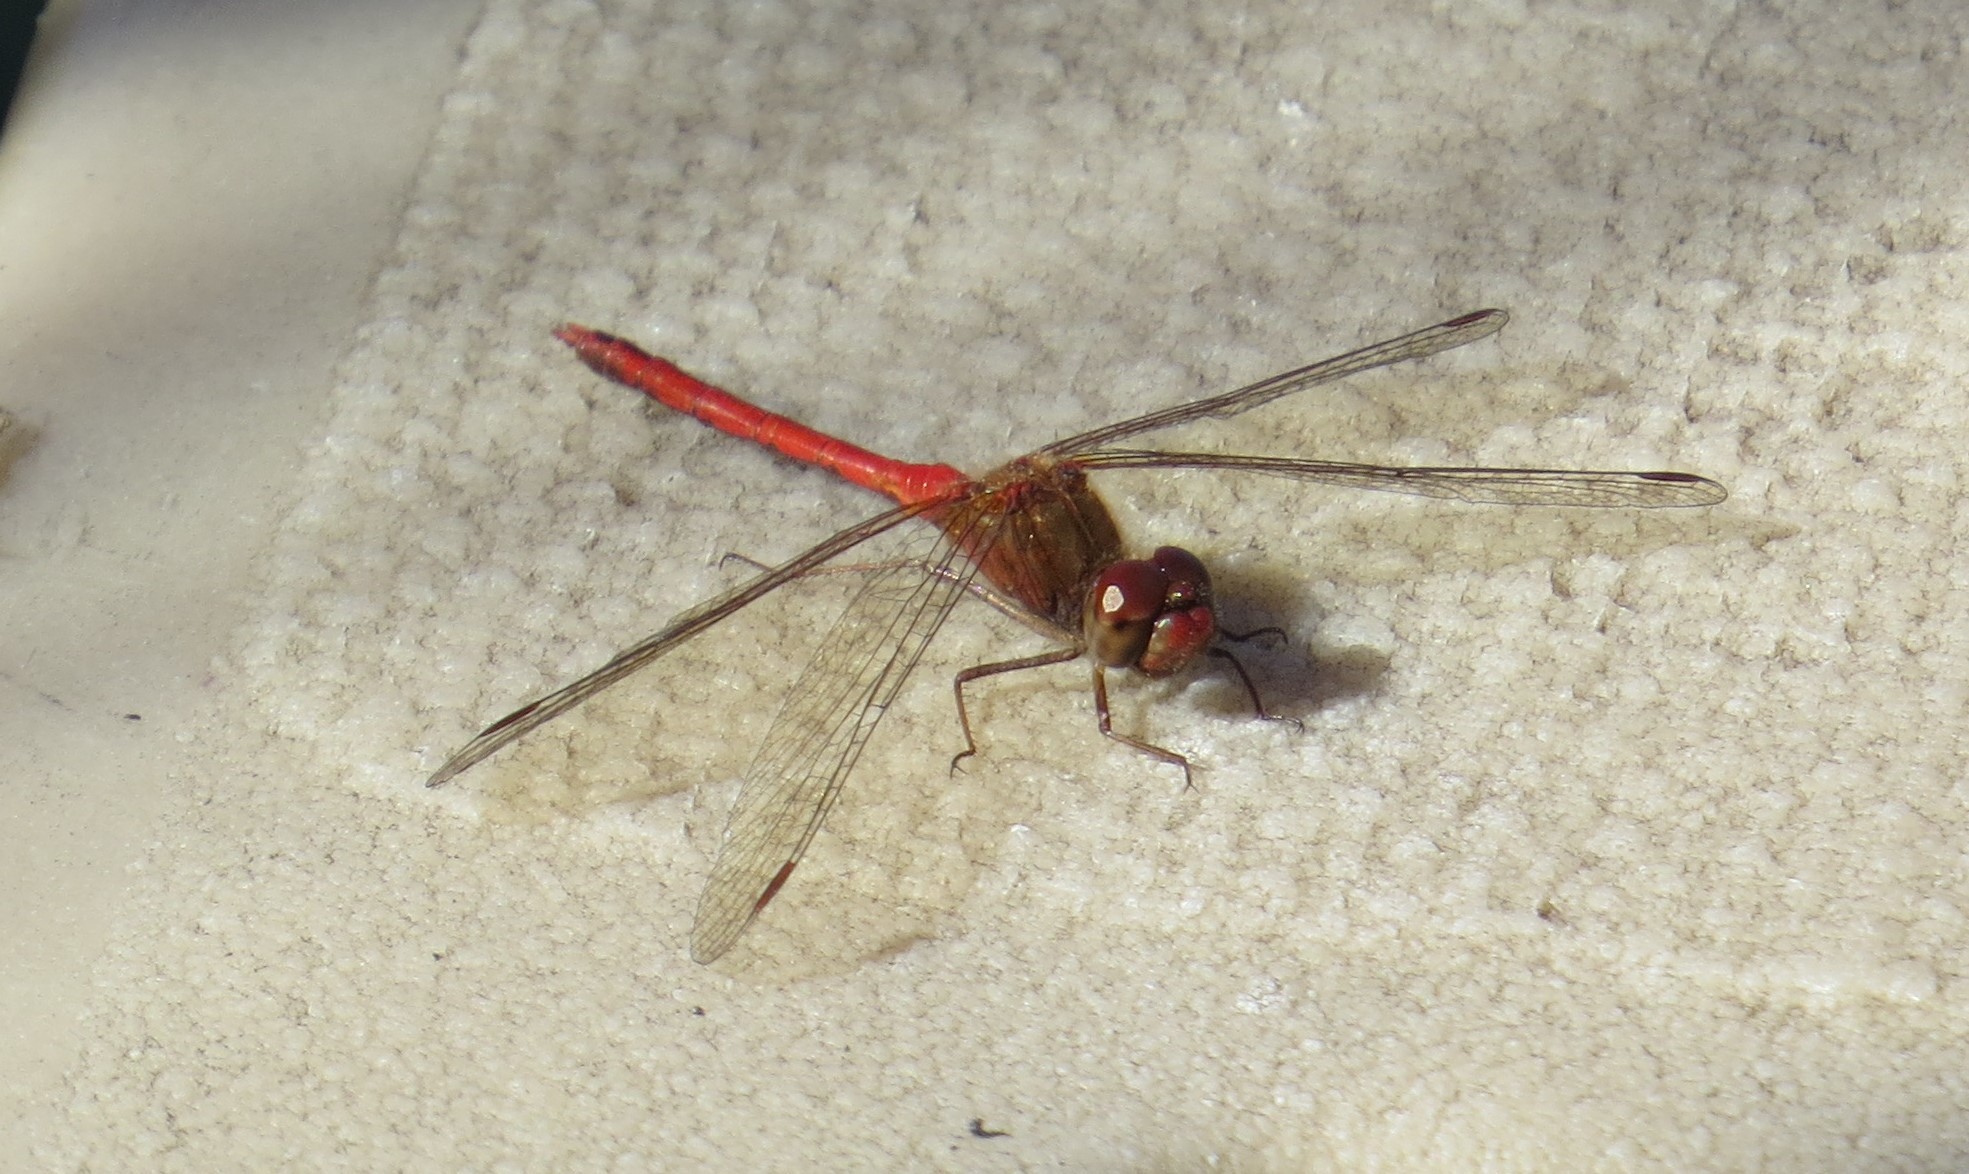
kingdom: Animalia
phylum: Arthropoda
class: Insecta
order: Odonata
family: Libellulidae
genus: Sympetrum
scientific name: Sympetrum vicinum
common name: Autumn meadowhawk
